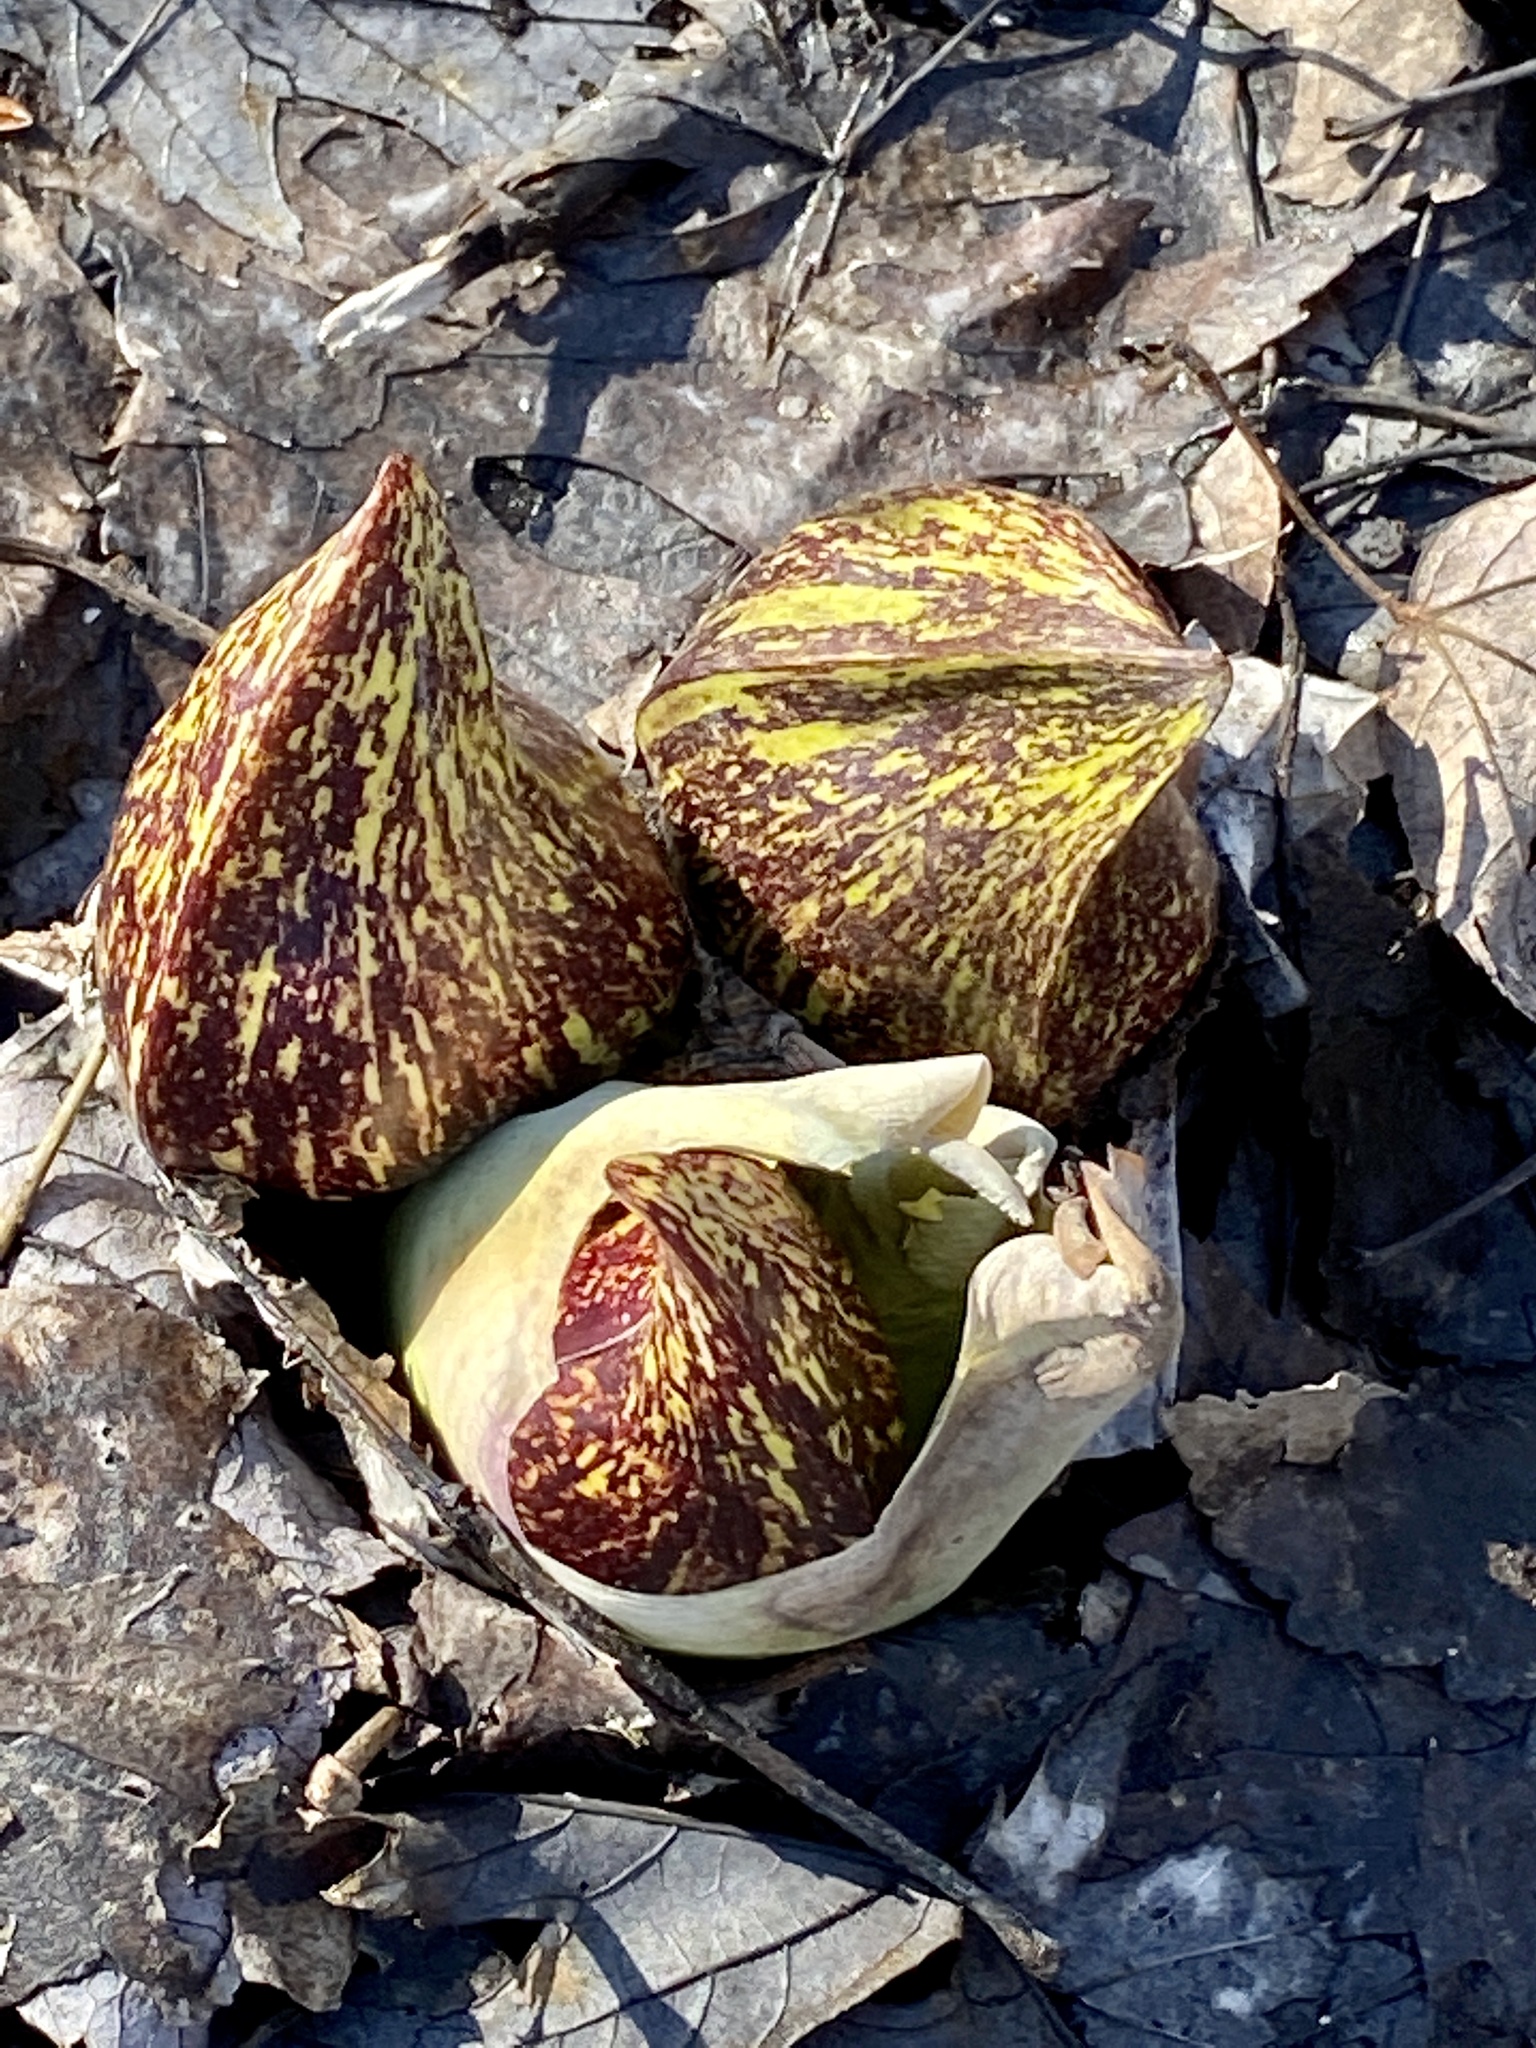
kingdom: Plantae
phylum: Tracheophyta
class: Liliopsida
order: Alismatales
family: Araceae
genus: Symplocarpus
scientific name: Symplocarpus foetidus
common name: Eastern skunk cabbage
